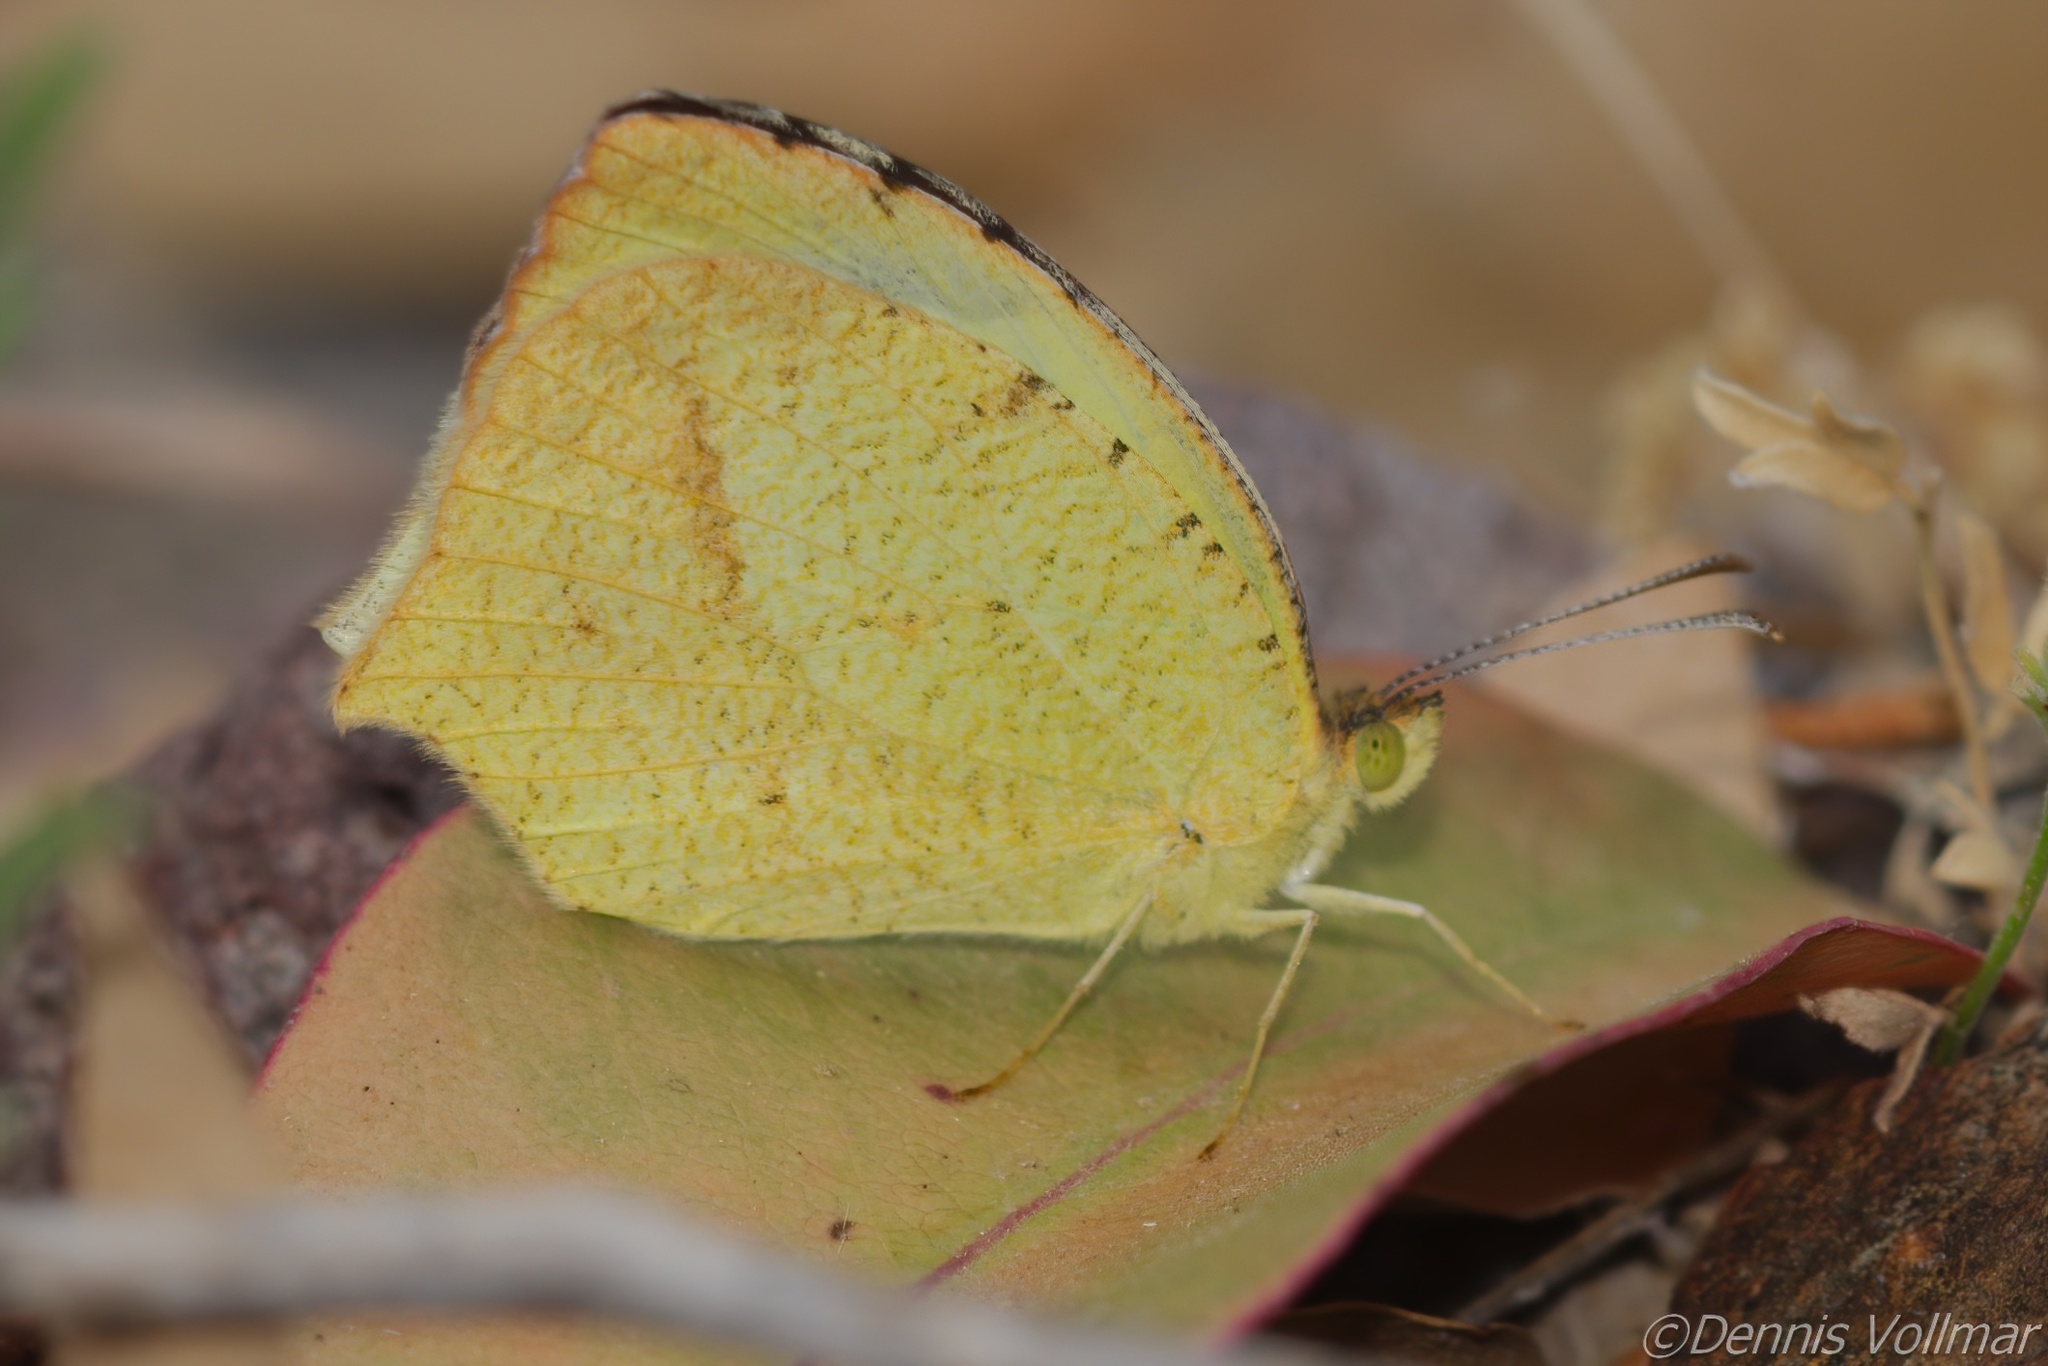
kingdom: Animalia
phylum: Arthropoda
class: Insecta
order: Lepidoptera
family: Pieridae
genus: Abaeis
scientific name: Abaeis mexicana
